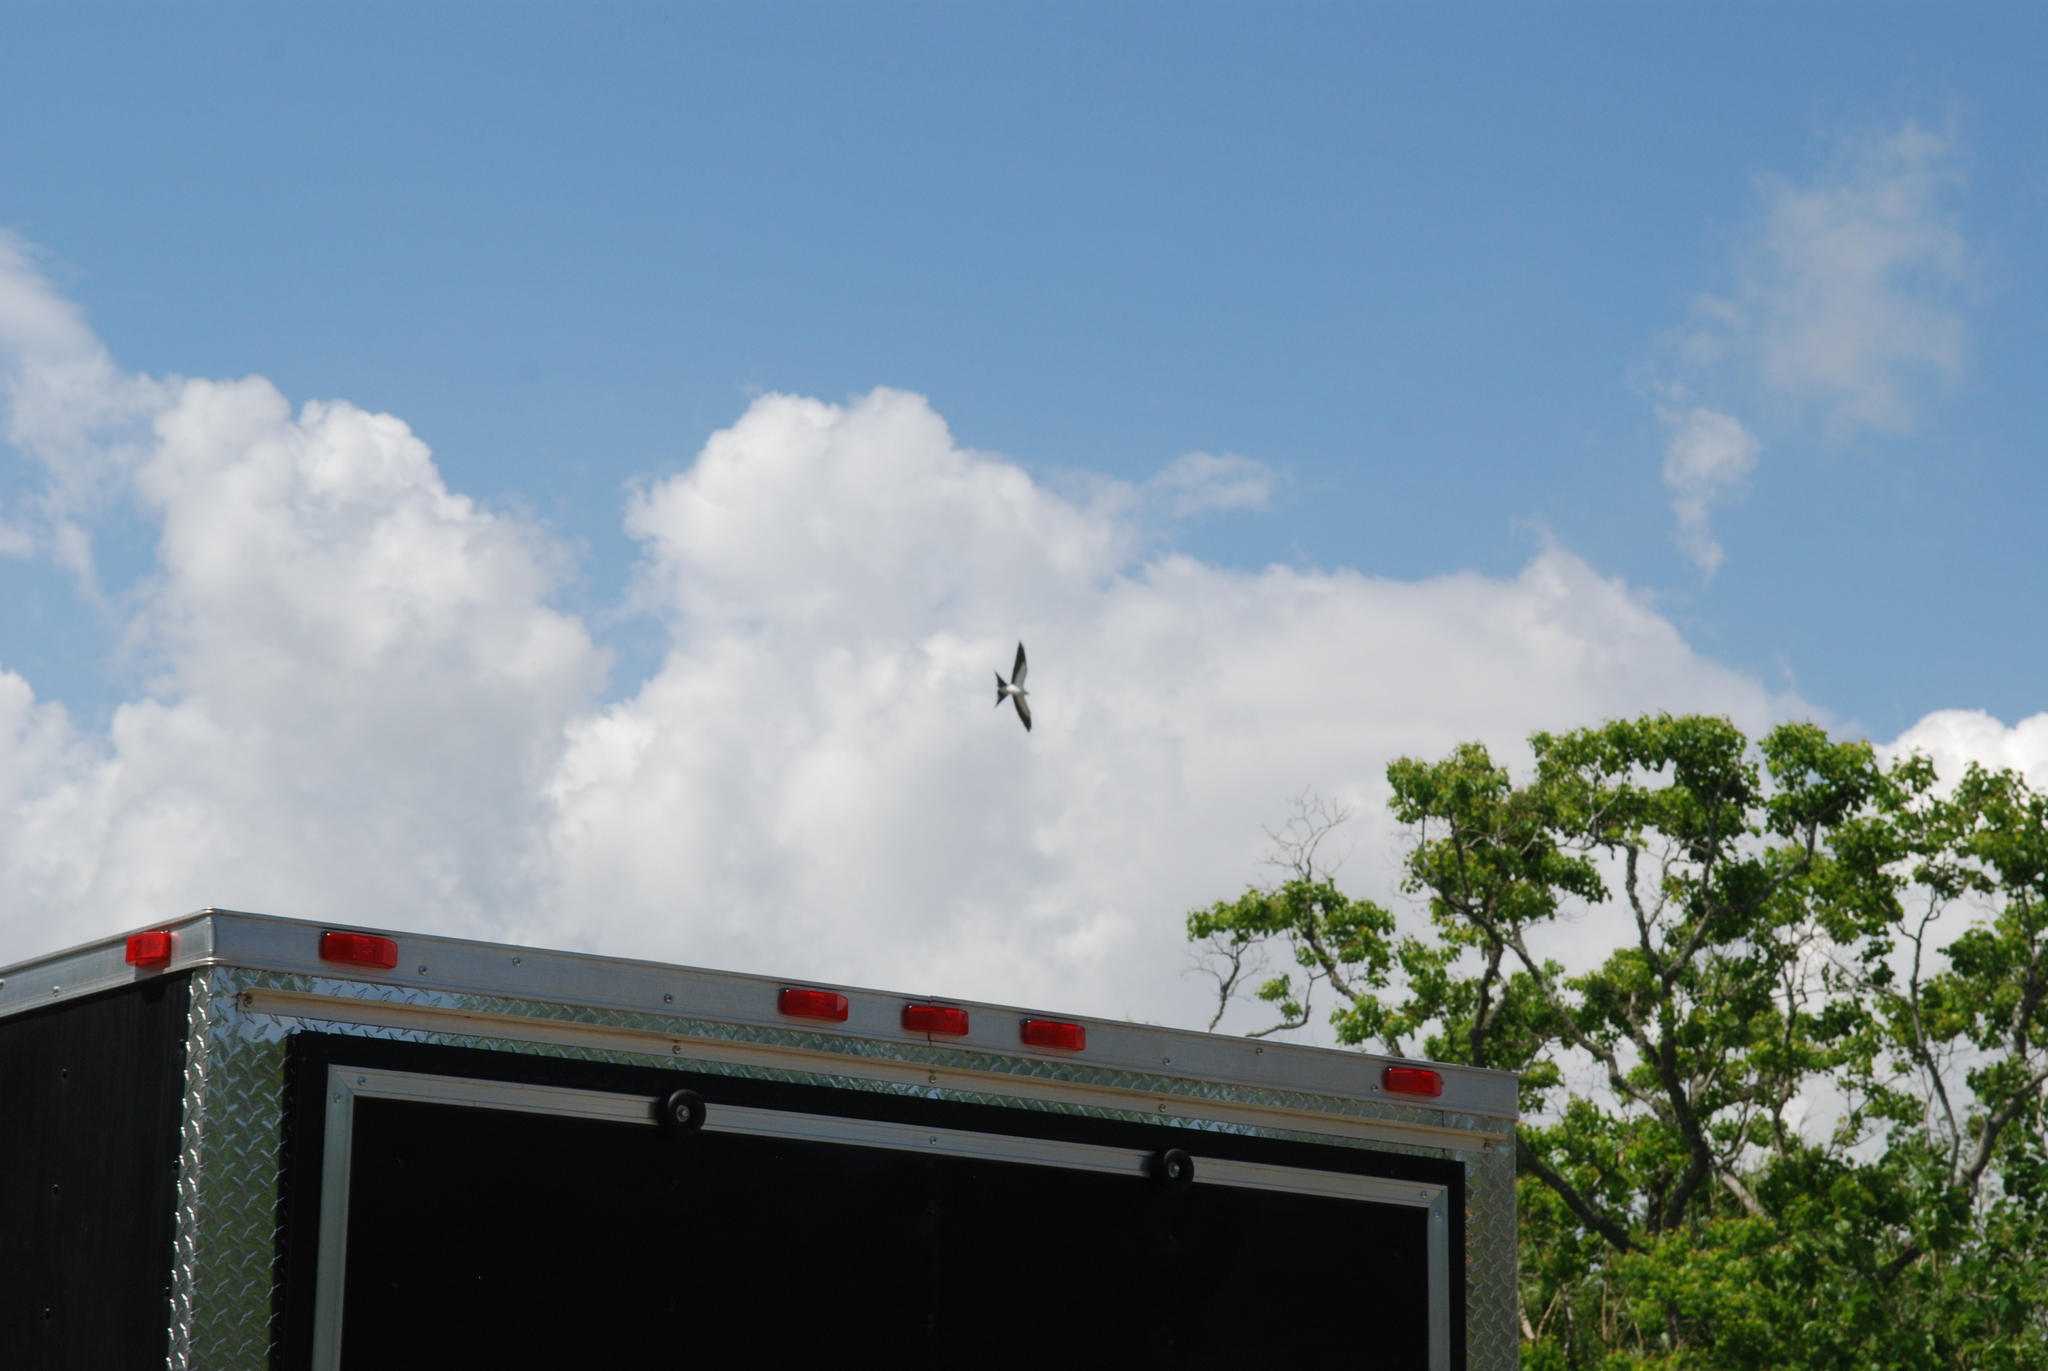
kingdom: Animalia
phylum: Chordata
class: Aves
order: Accipitriformes
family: Accipitridae
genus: Elanoides
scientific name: Elanoides forficatus
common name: Swallow-tailed kite
